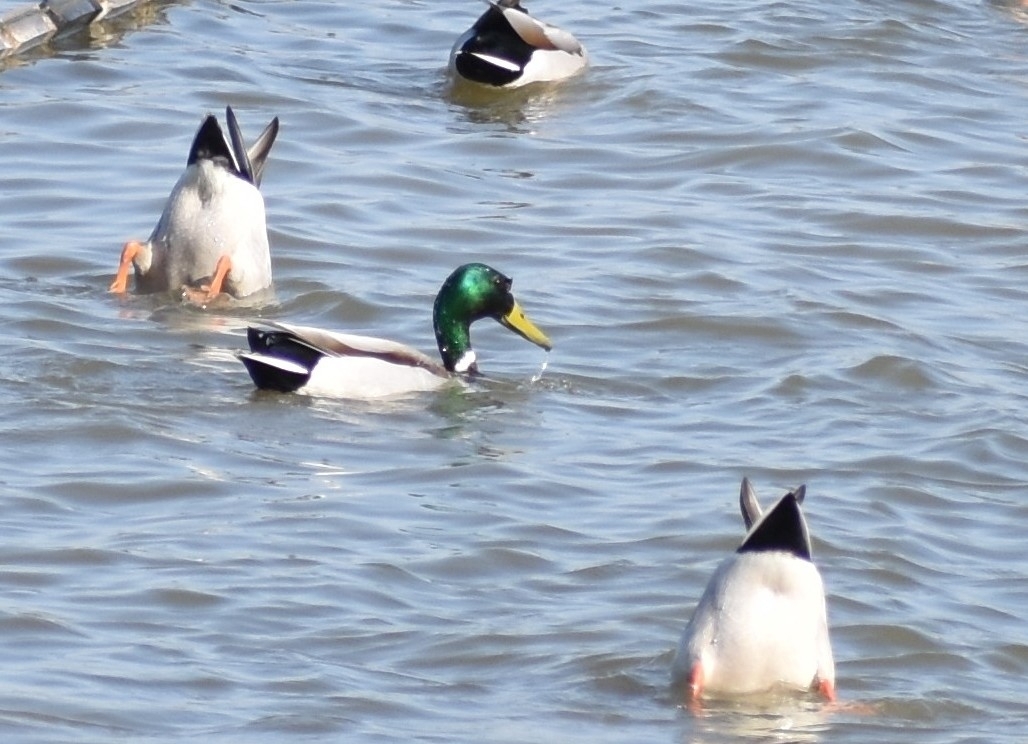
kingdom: Animalia
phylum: Chordata
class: Aves
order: Anseriformes
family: Anatidae
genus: Anas
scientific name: Anas platyrhynchos
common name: Mallard
